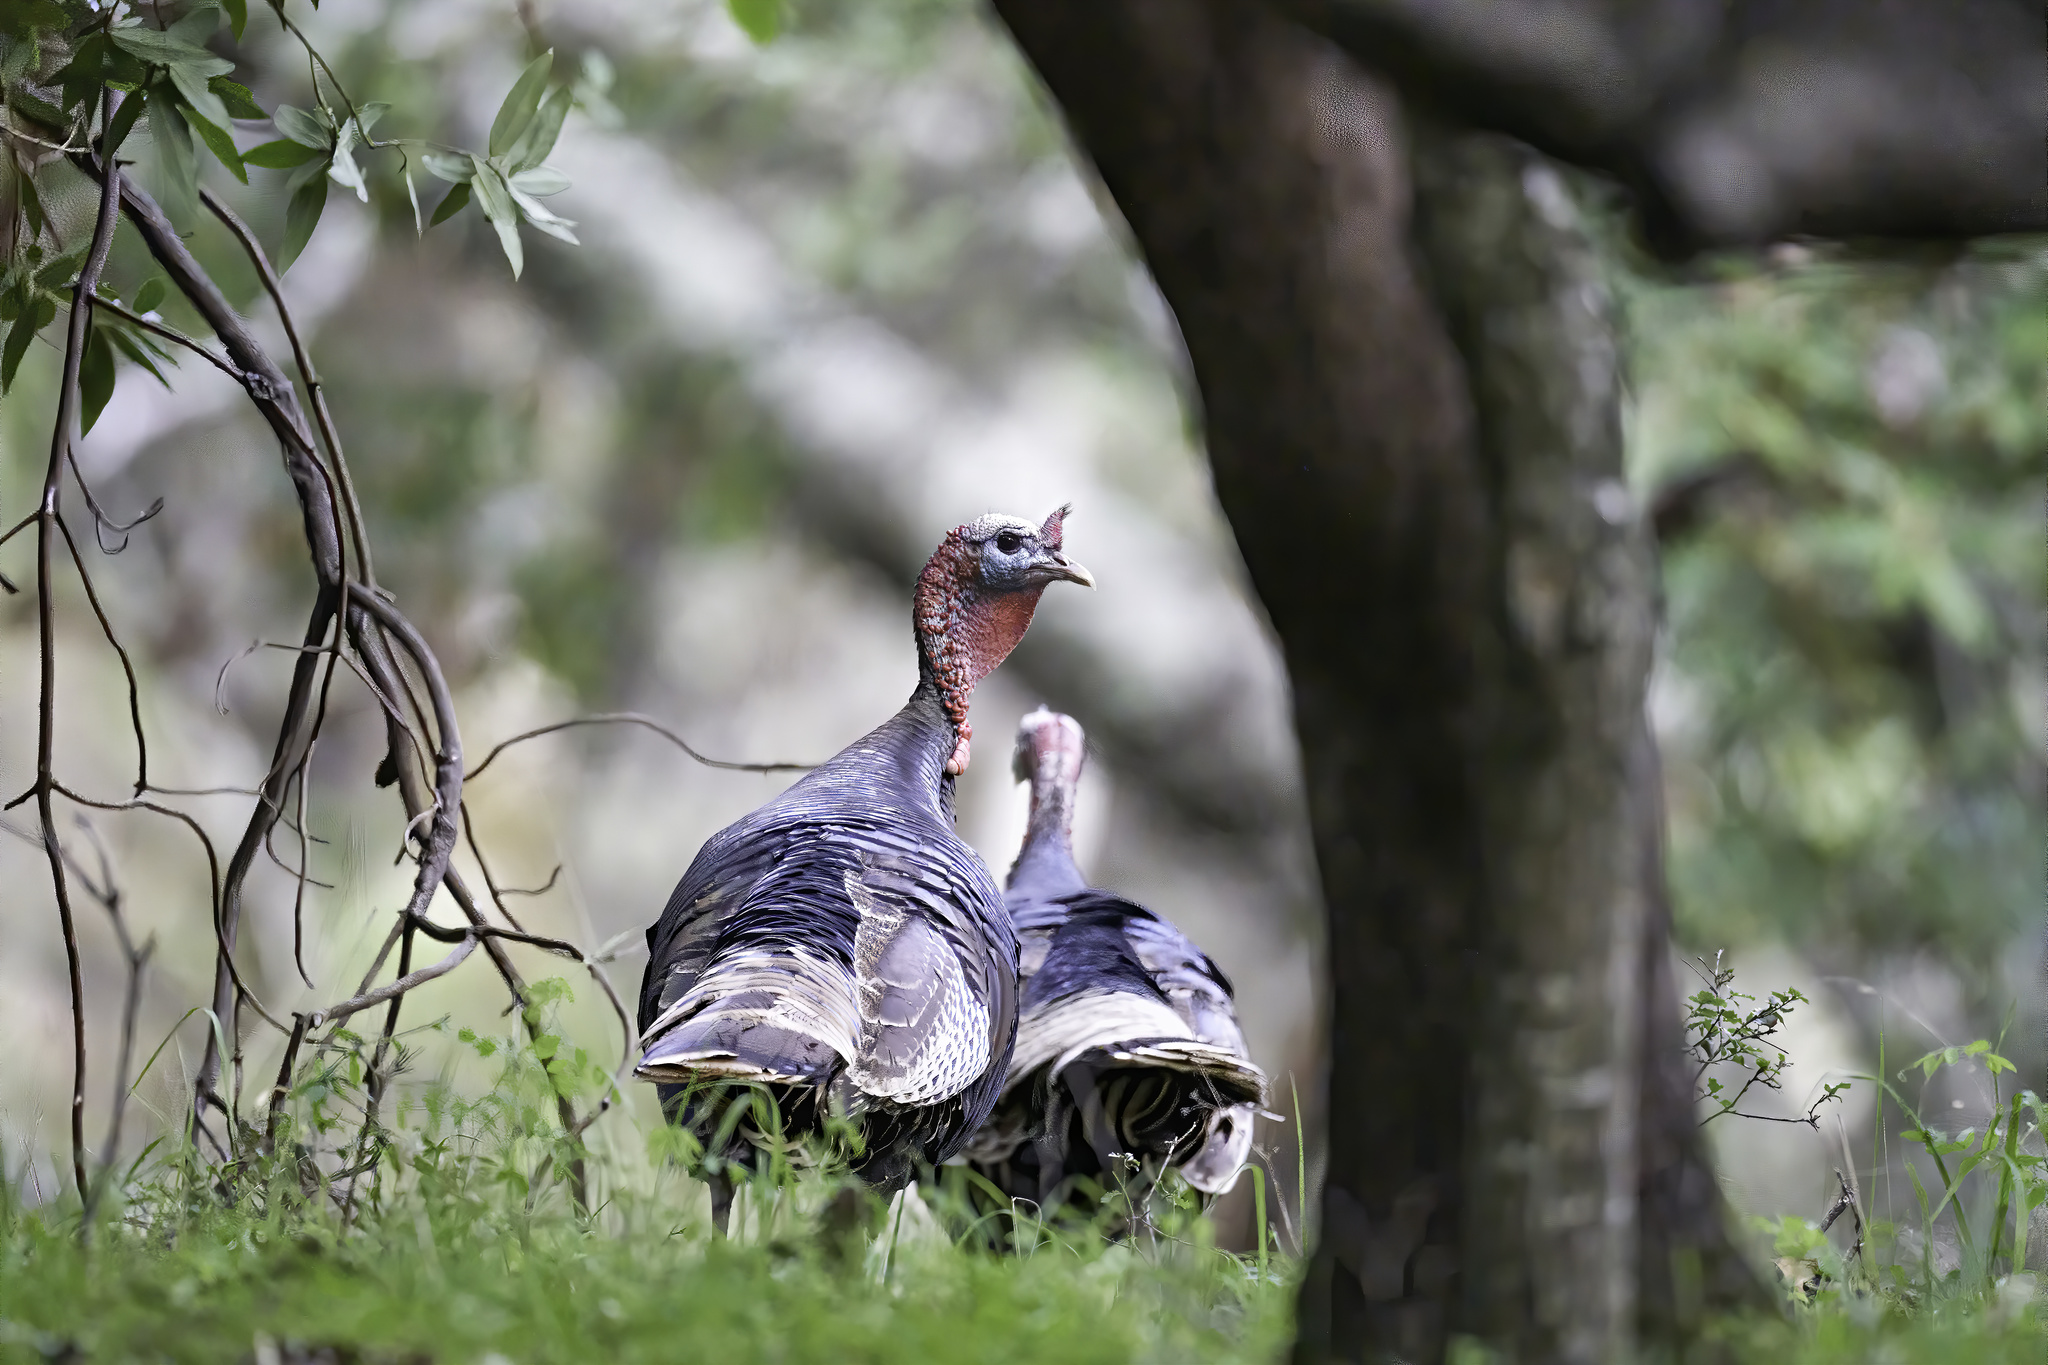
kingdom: Animalia
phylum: Chordata
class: Aves
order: Galliformes
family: Phasianidae
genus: Meleagris
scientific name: Meleagris gallopavo
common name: Wild turkey
